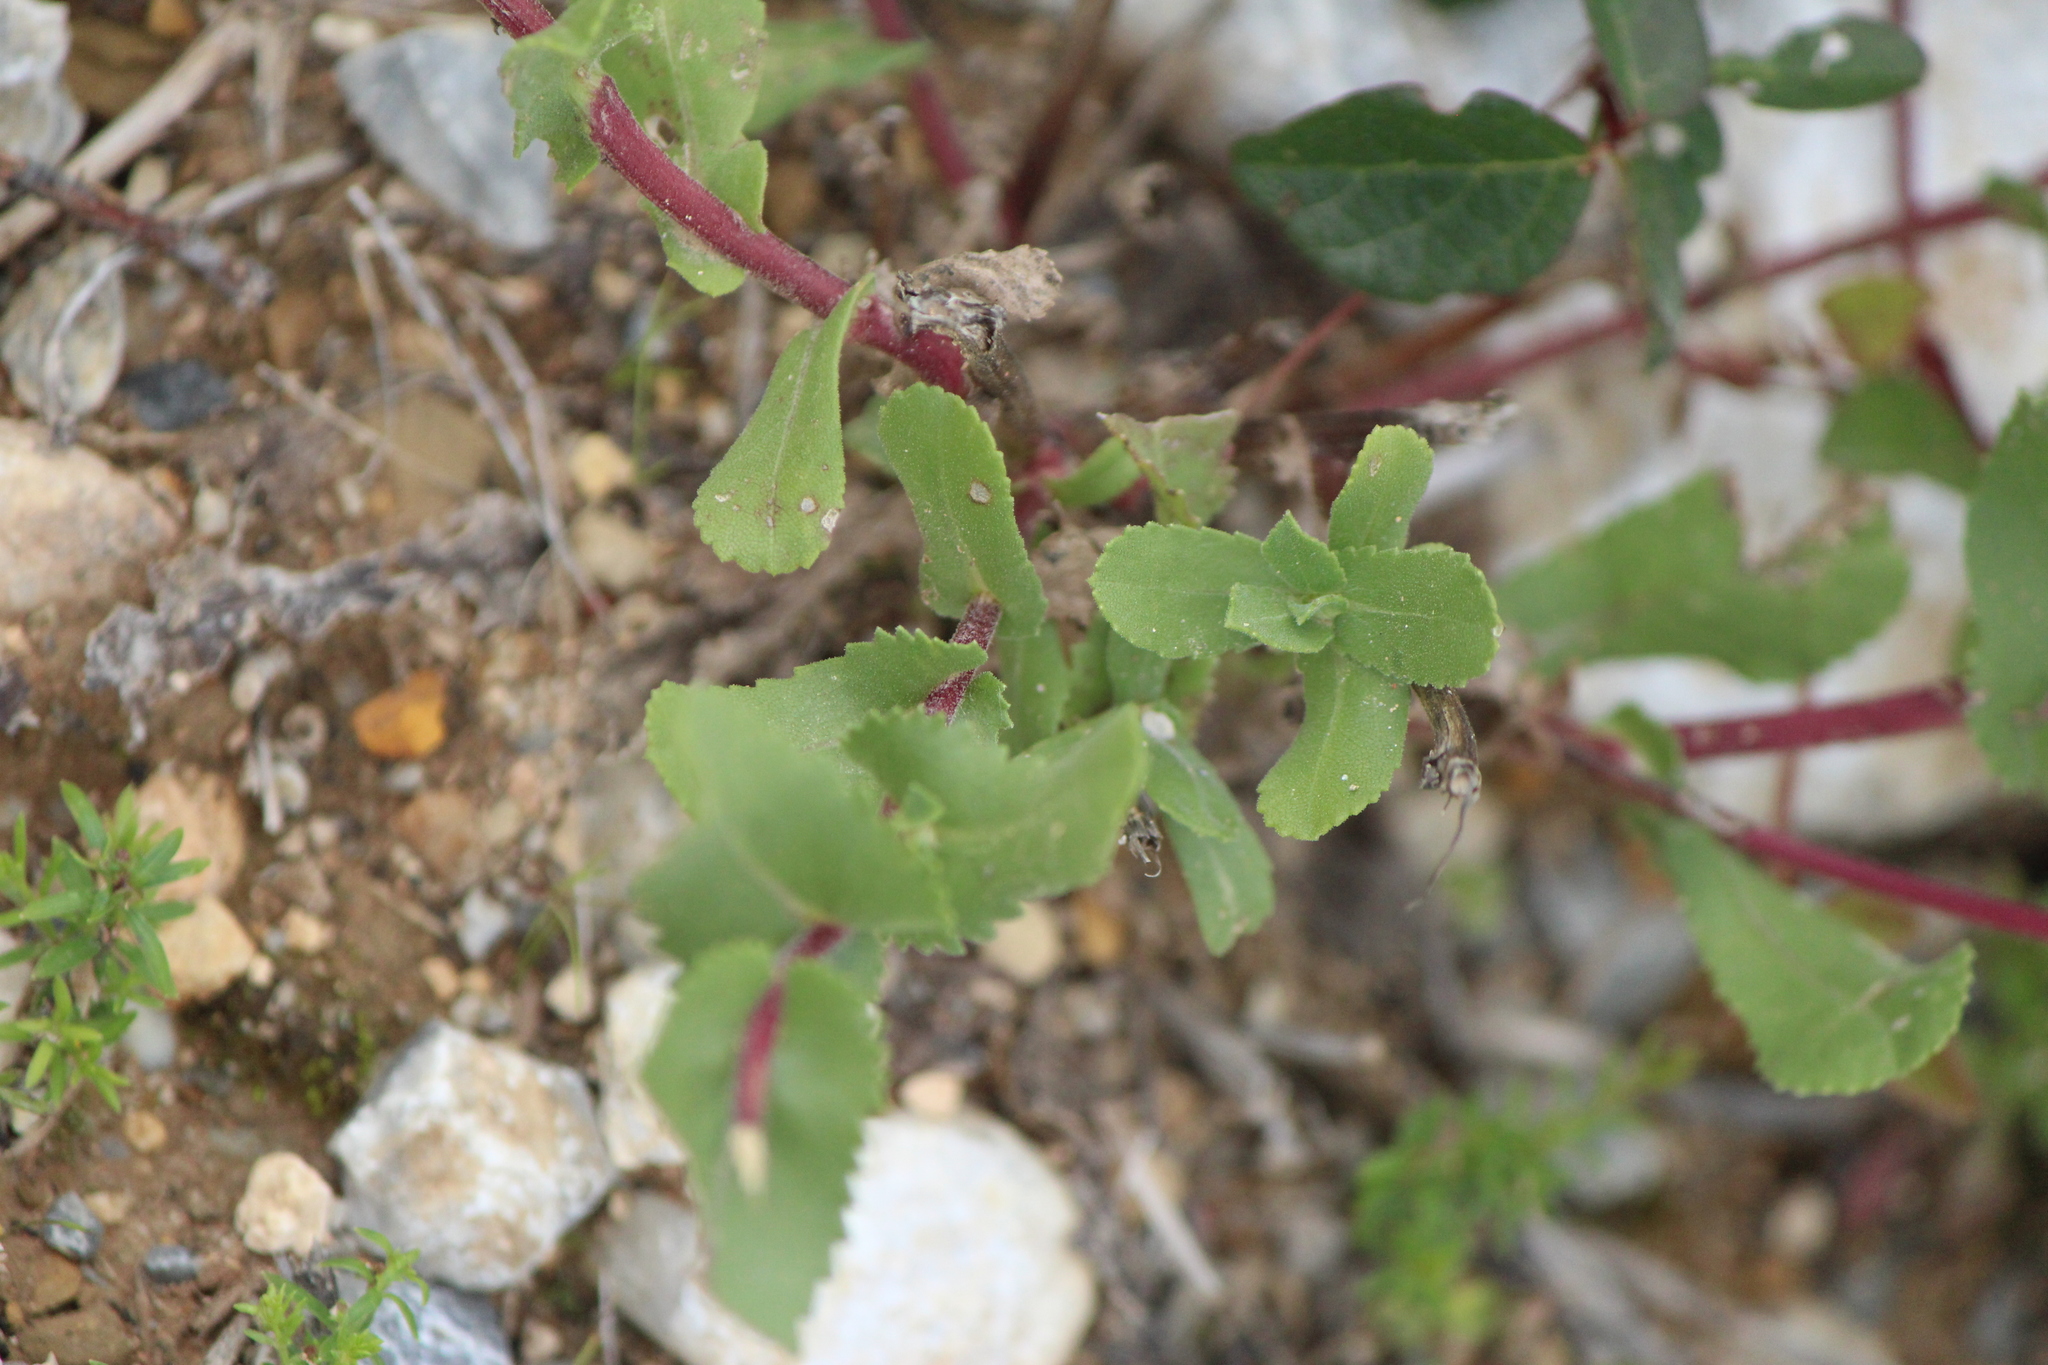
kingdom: Plantae
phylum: Tracheophyta
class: Magnoliopsida
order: Asterales
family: Asteraceae
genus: Grindelia
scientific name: Grindelia subdecurrens
